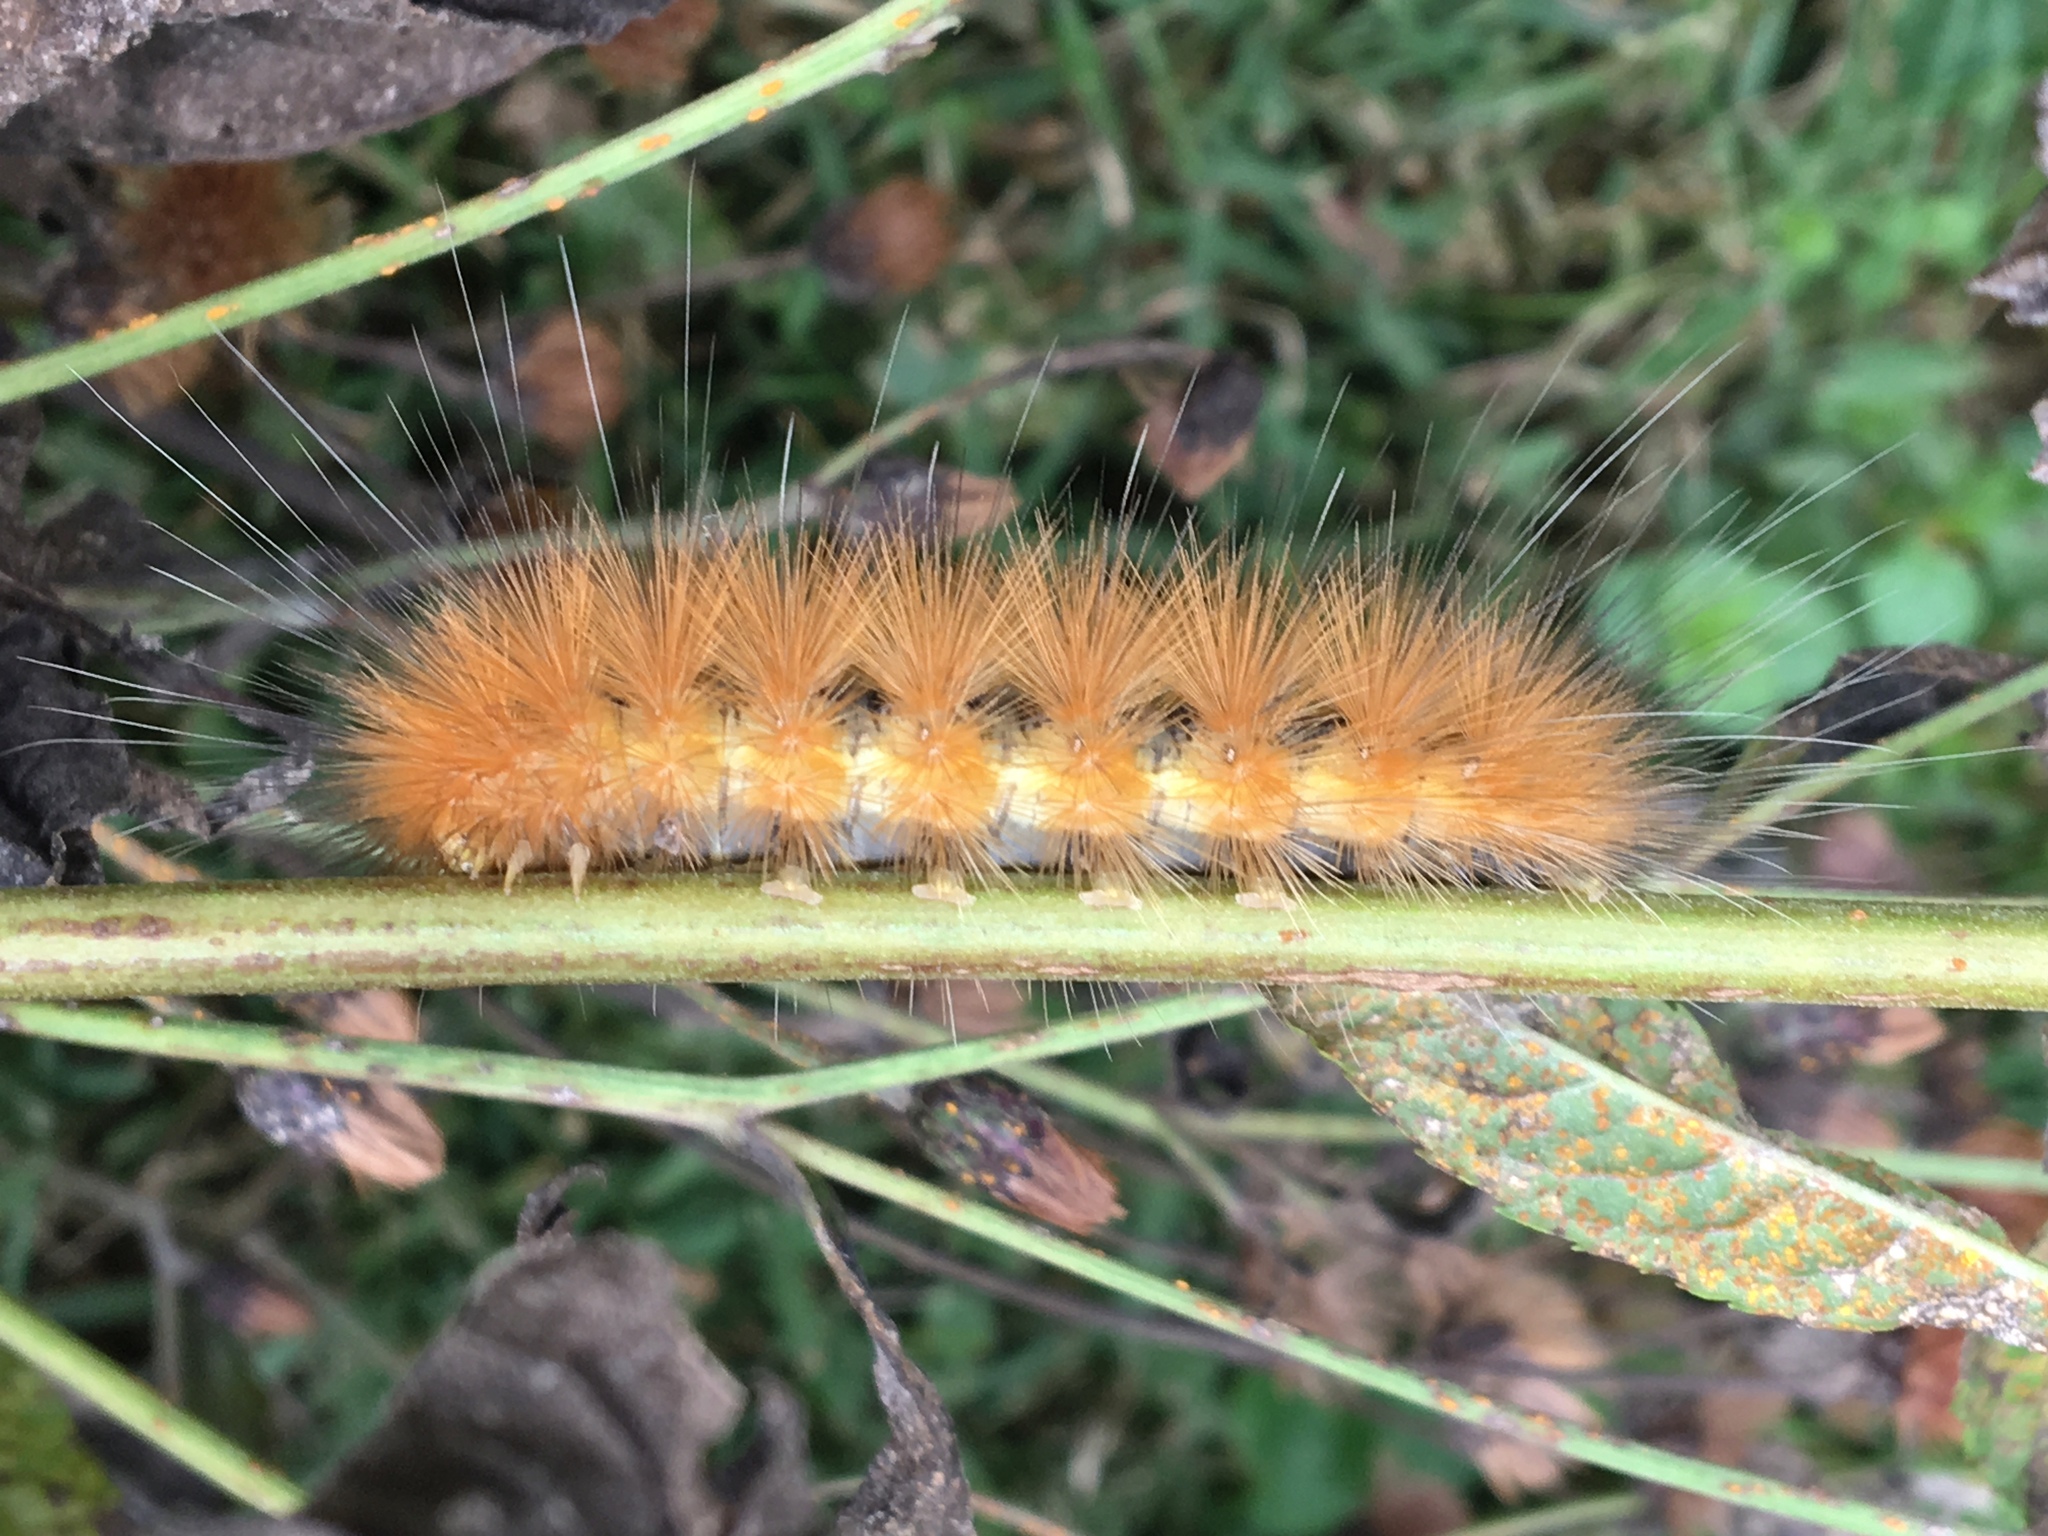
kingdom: Animalia
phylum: Arthropoda
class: Insecta
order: Lepidoptera
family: Erebidae
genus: Spilosoma
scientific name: Spilosoma virginica
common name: Virginia tiger moth
